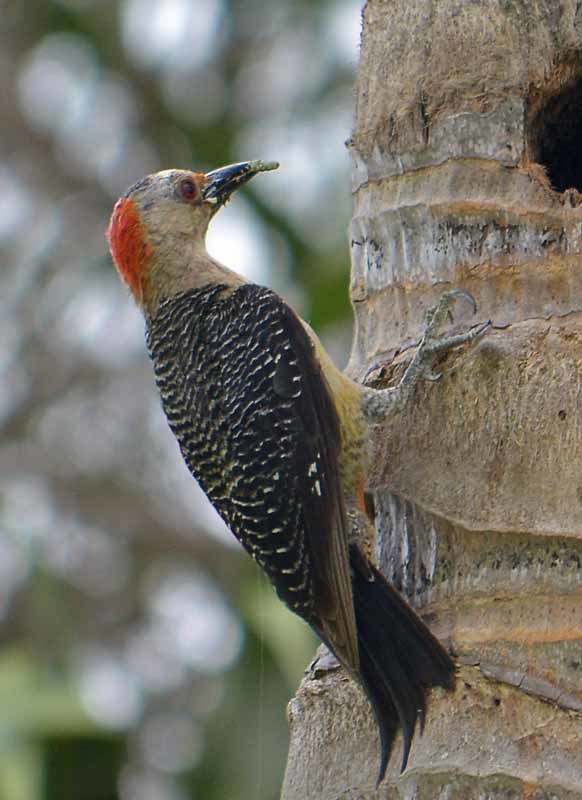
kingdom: Animalia
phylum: Chordata
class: Aves
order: Piciformes
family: Picidae
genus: Melanerpes
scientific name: Melanerpes aurifrons
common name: Golden-fronted woodpecker
